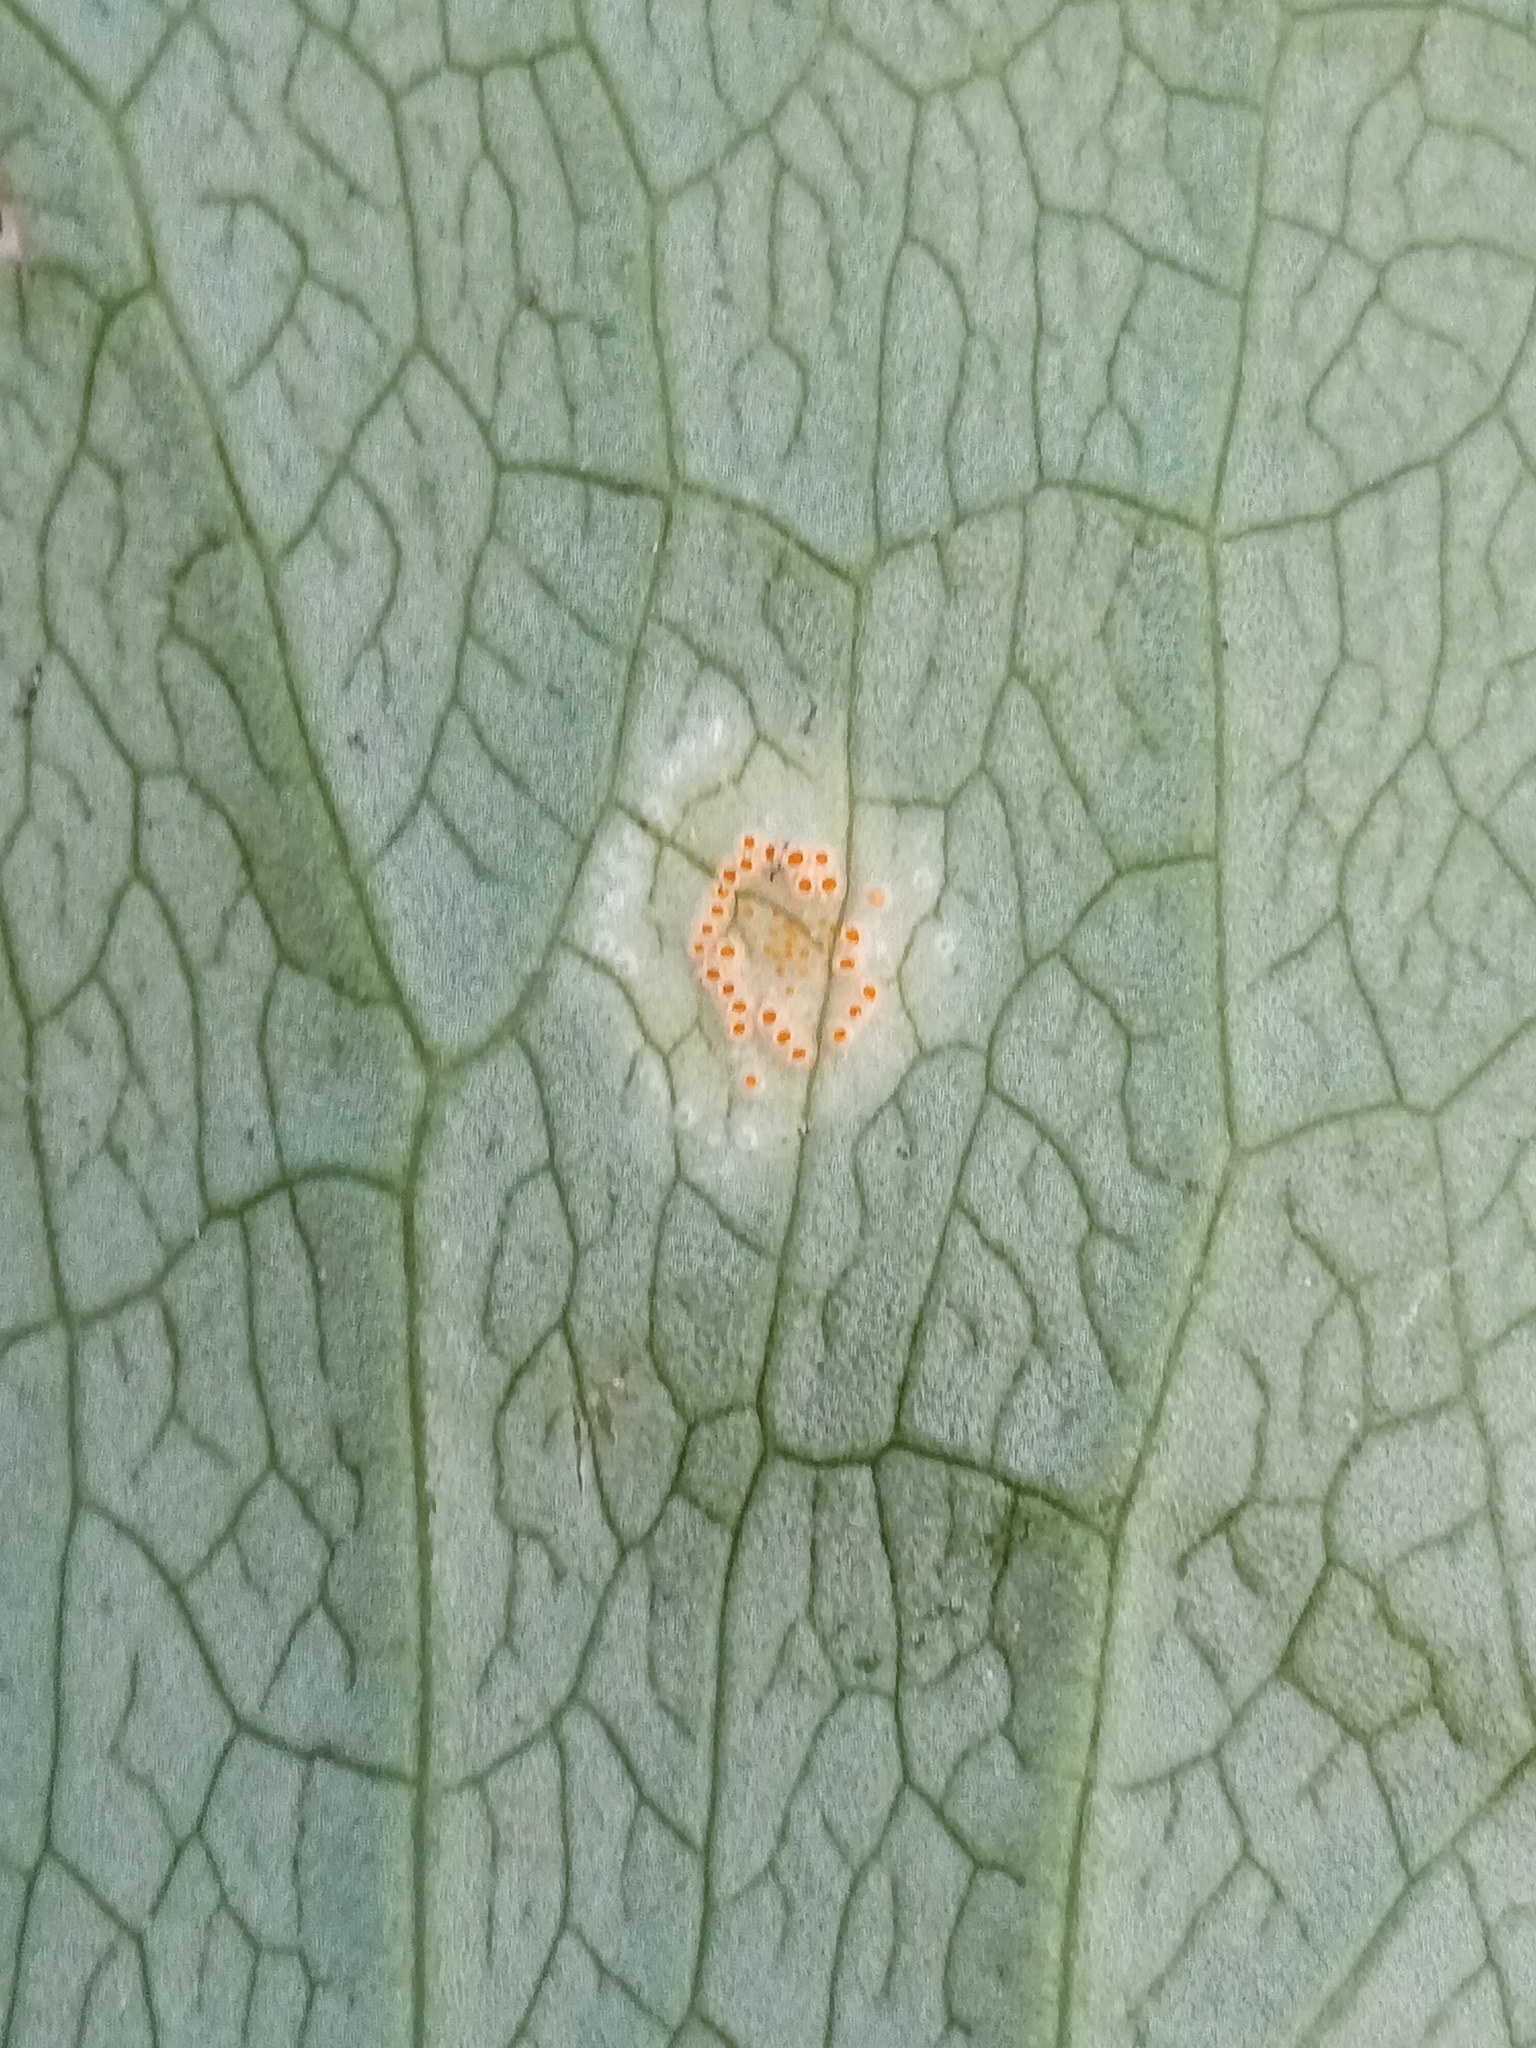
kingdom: Fungi
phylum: Basidiomycota
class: Pucciniomycetes
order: Pucciniales
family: Pucciniaceae
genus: Puccinia
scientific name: Puccinia sessilis
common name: Arum rust
